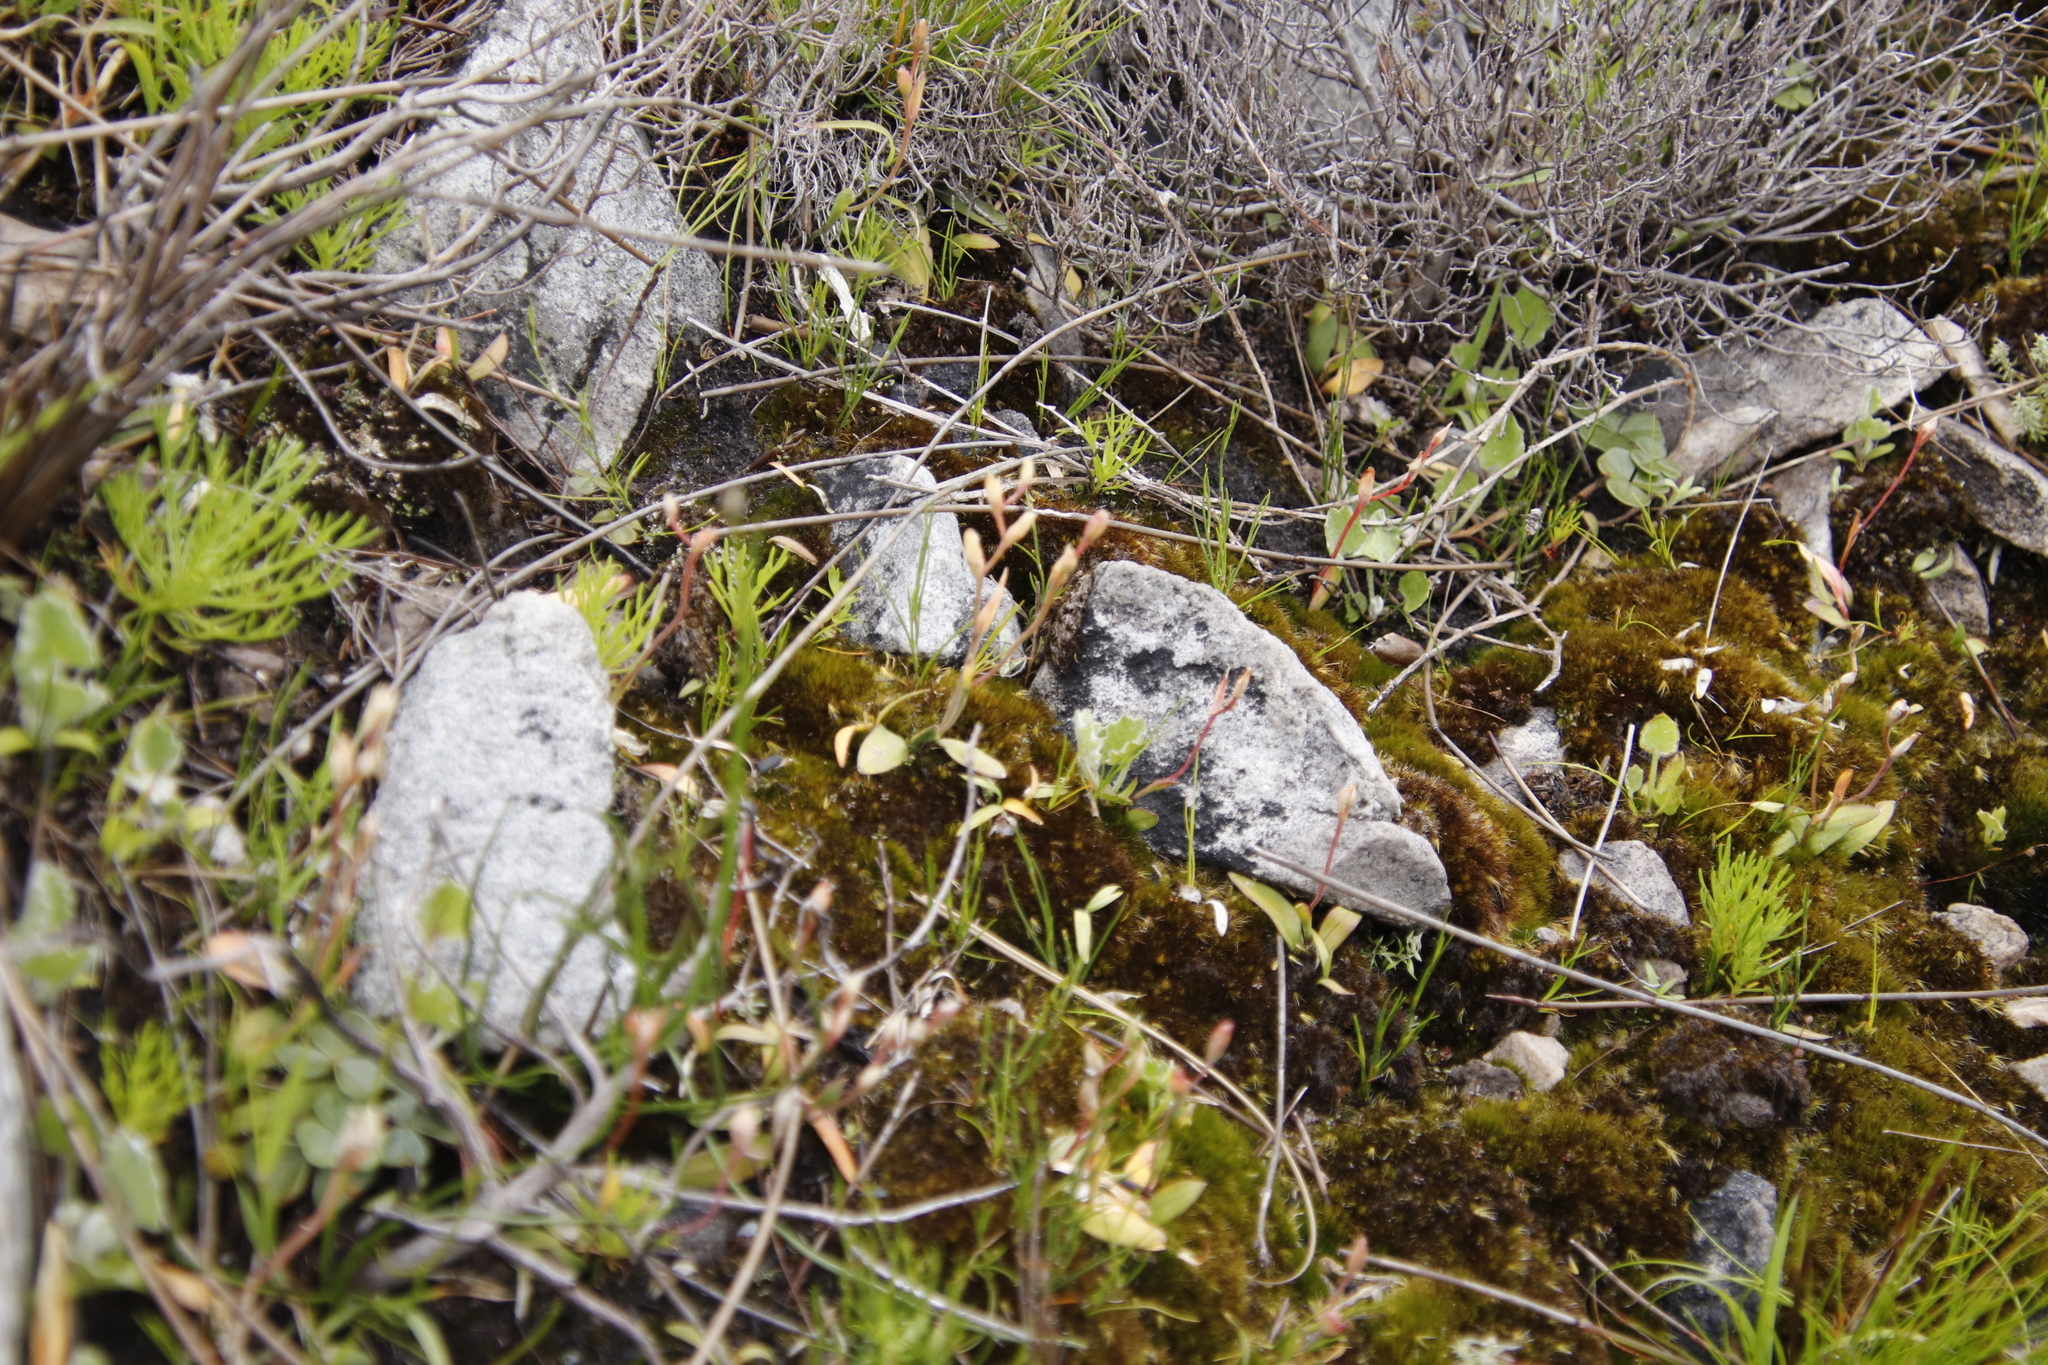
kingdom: Plantae
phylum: Tracheophyta
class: Liliopsida
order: Asparagales
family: Iridaceae
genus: Geissorhiza
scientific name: Geissorhiza bolusii
